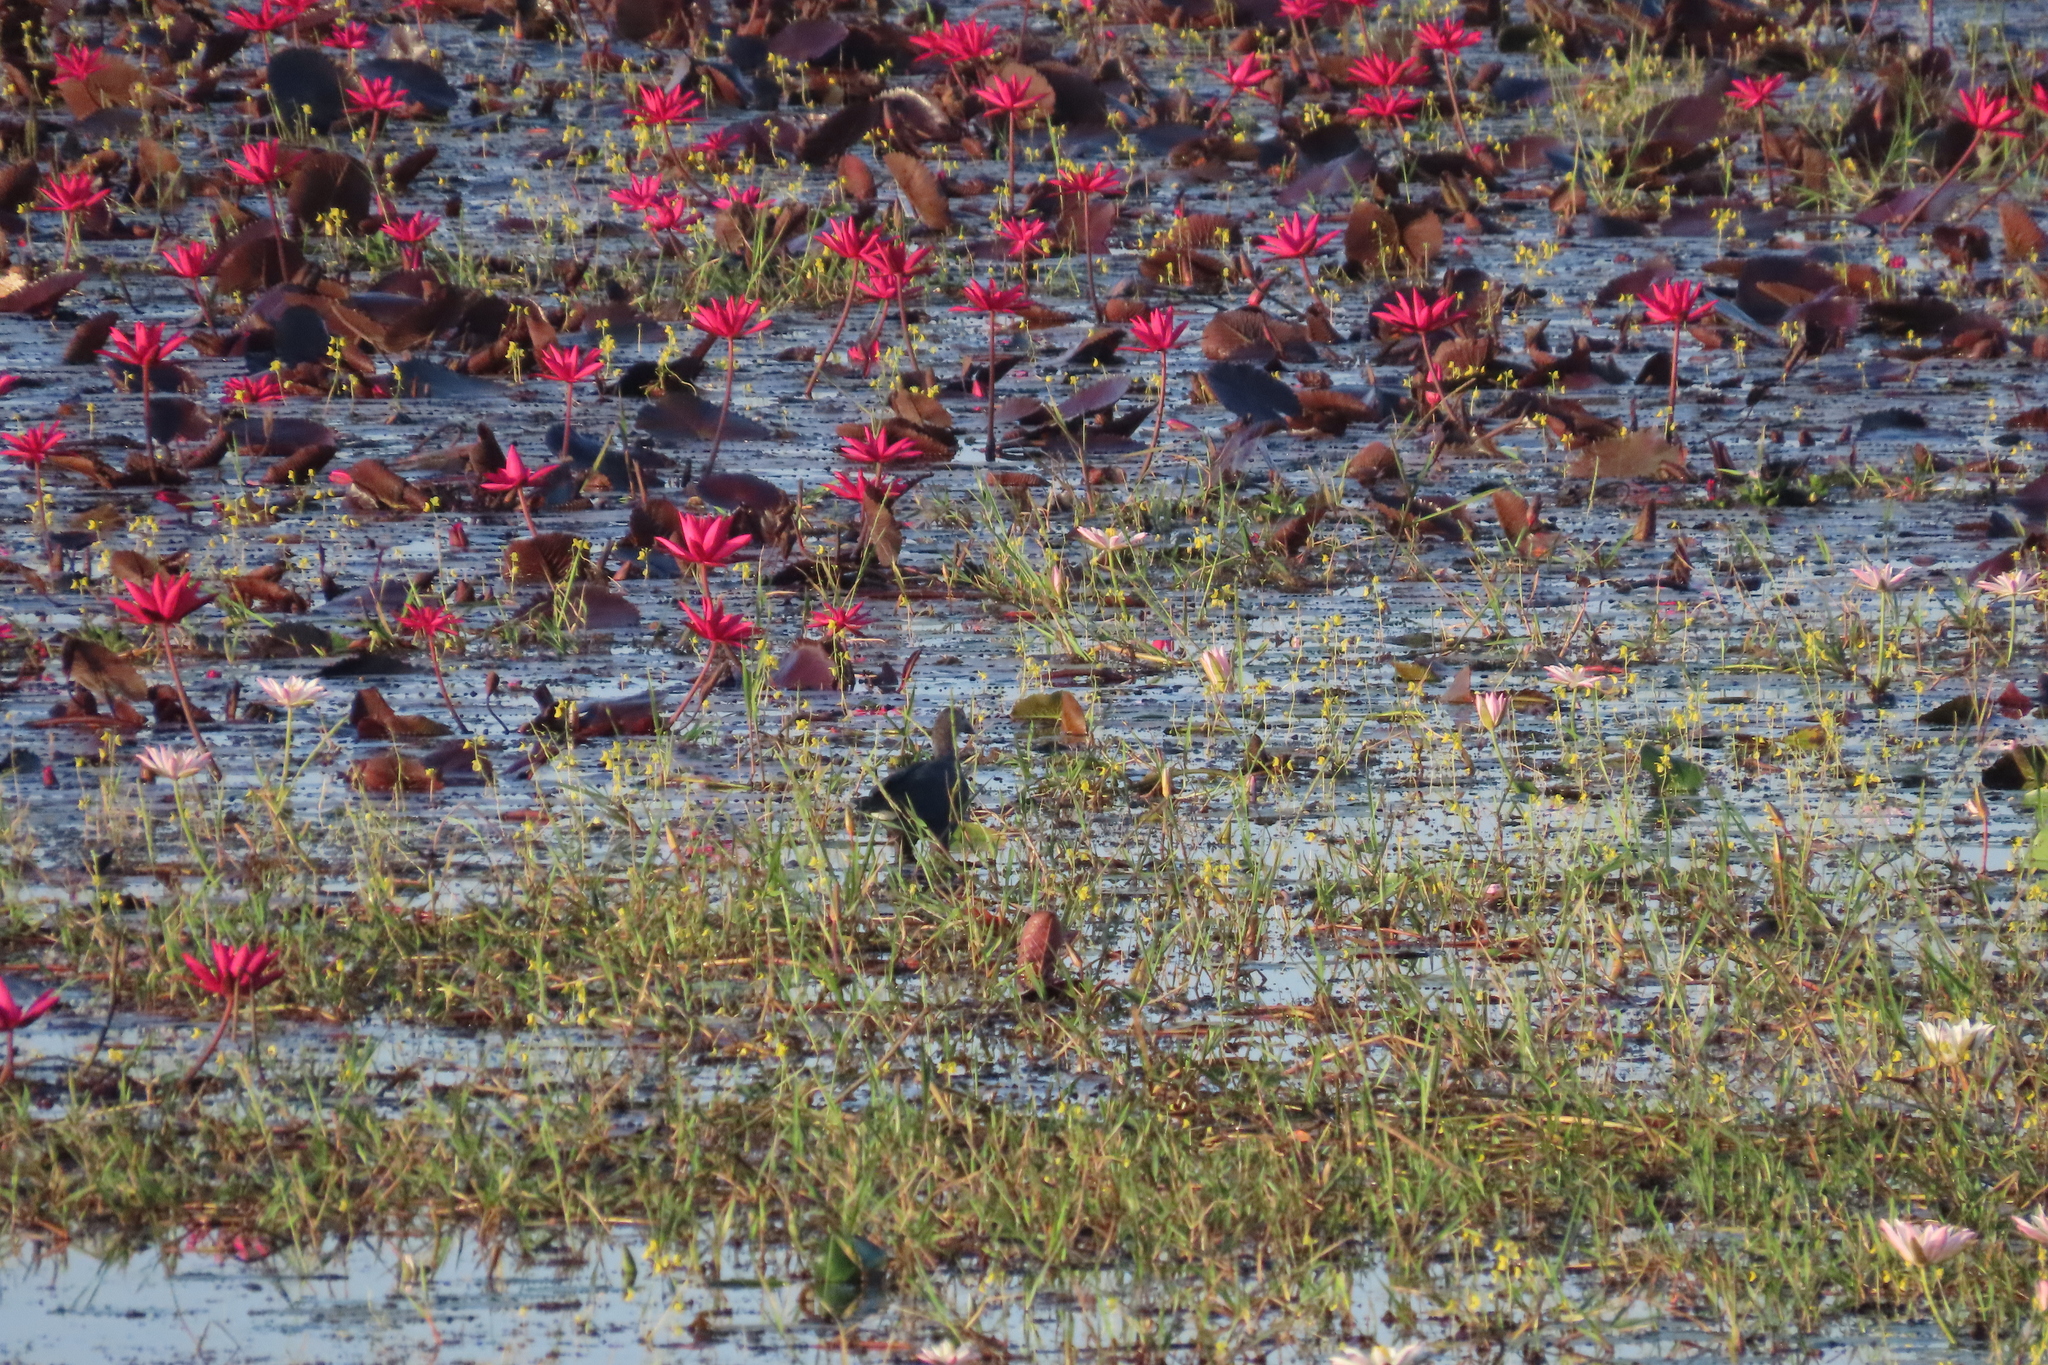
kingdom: Animalia
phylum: Chordata
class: Aves
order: Gruiformes
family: Rallidae
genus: Porphyrio
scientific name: Porphyrio porphyrio
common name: Purple swamphen
